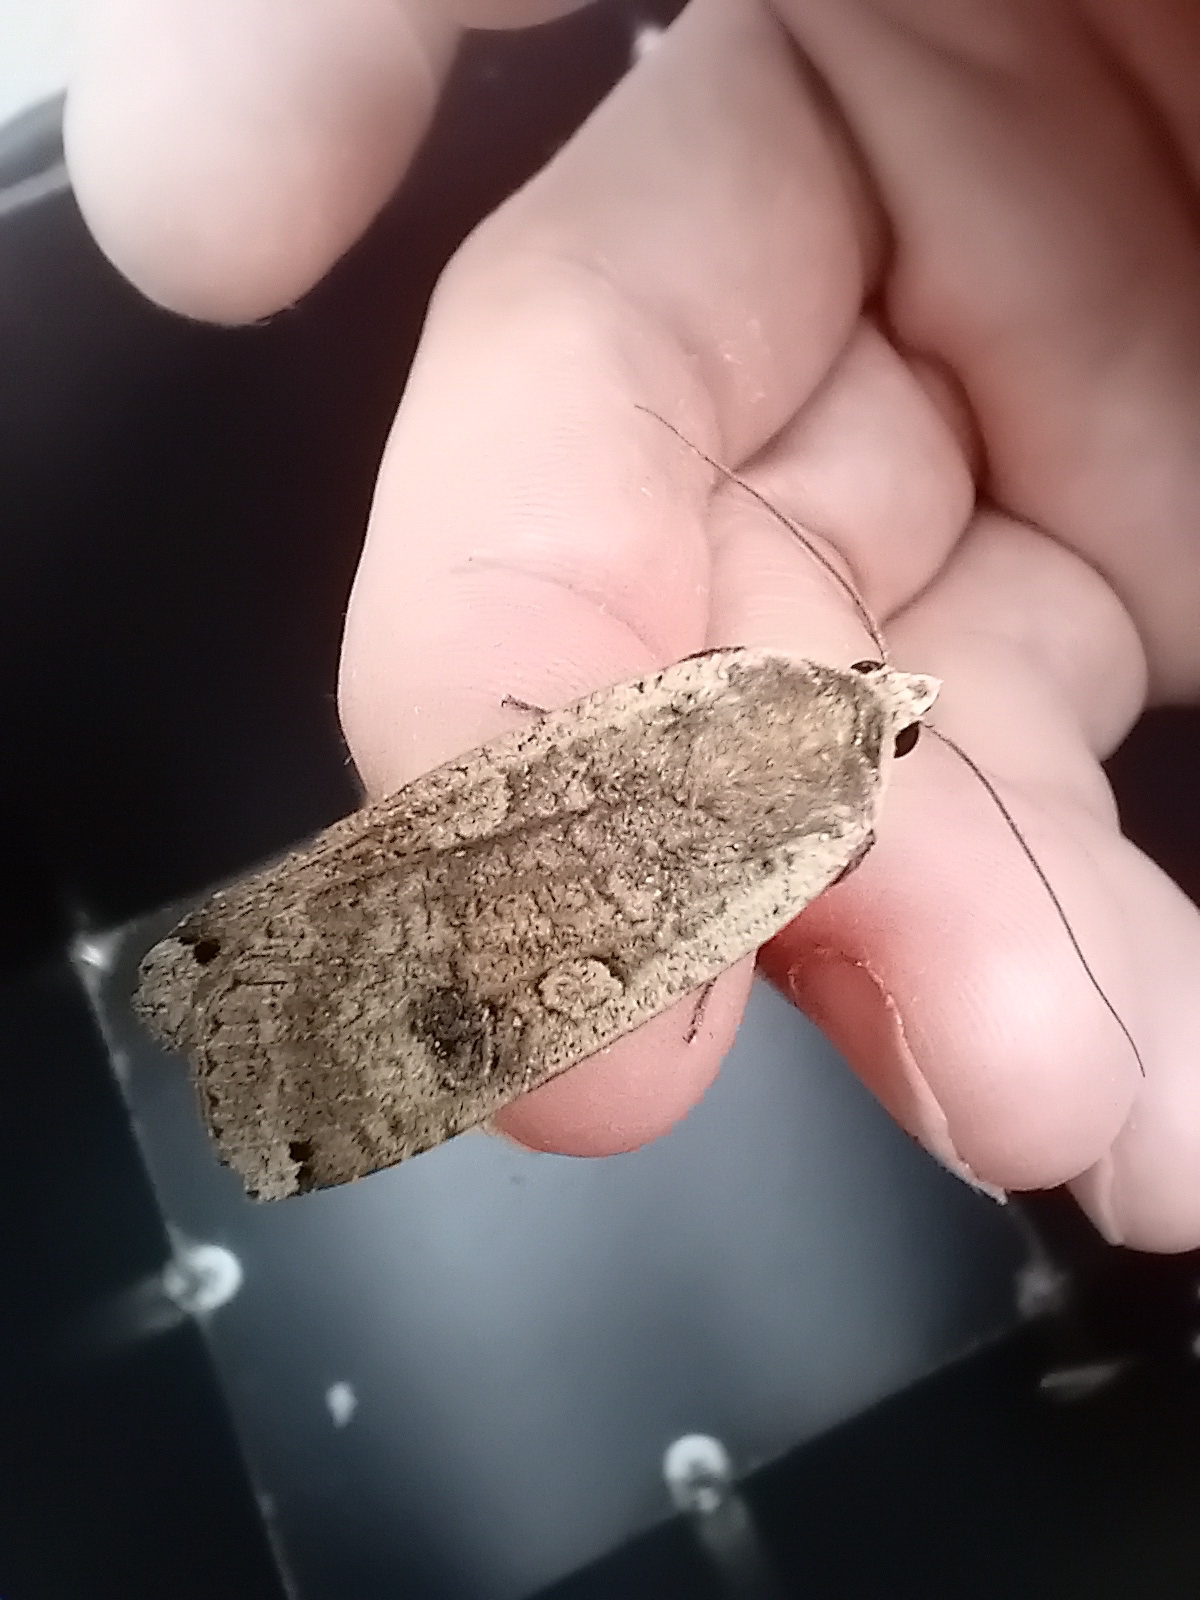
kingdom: Animalia
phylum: Arthropoda
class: Insecta
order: Lepidoptera
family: Noctuidae
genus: Noctua
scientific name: Noctua pronuba
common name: Large yellow underwing
